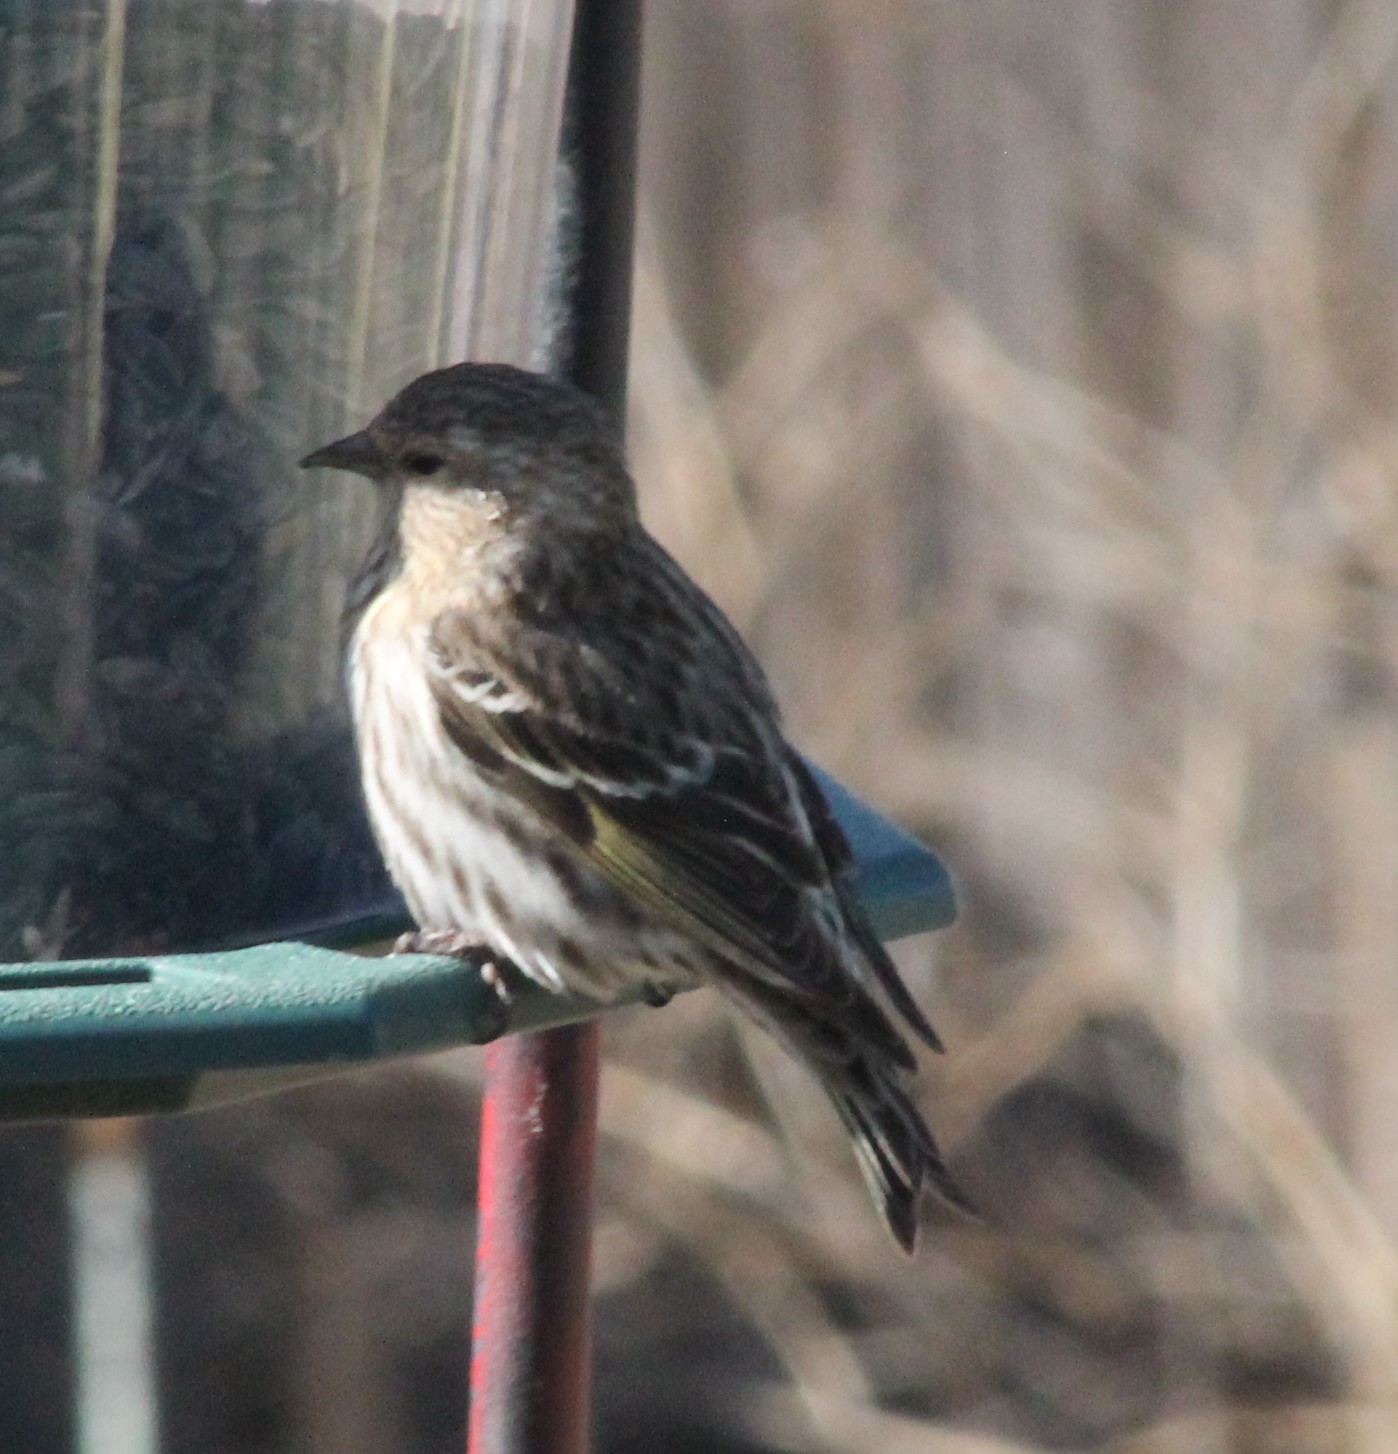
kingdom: Animalia
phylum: Chordata
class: Aves
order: Passeriformes
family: Fringillidae
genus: Spinus
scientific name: Spinus pinus
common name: Pine siskin
